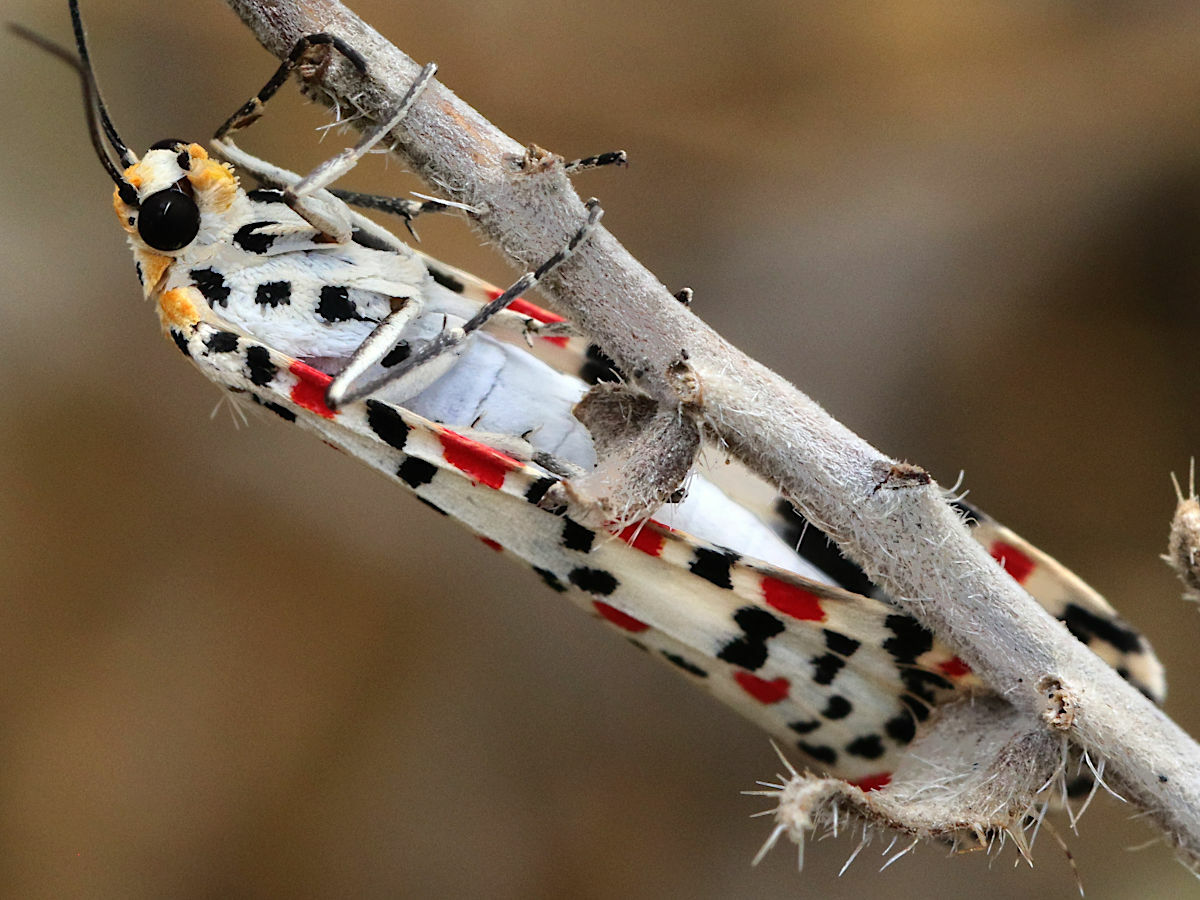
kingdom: Animalia
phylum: Arthropoda
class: Insecta
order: Lepidoptera
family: Erebidae
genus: Utetheisa
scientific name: Utetheisa pulchella
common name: Crimson speckled
